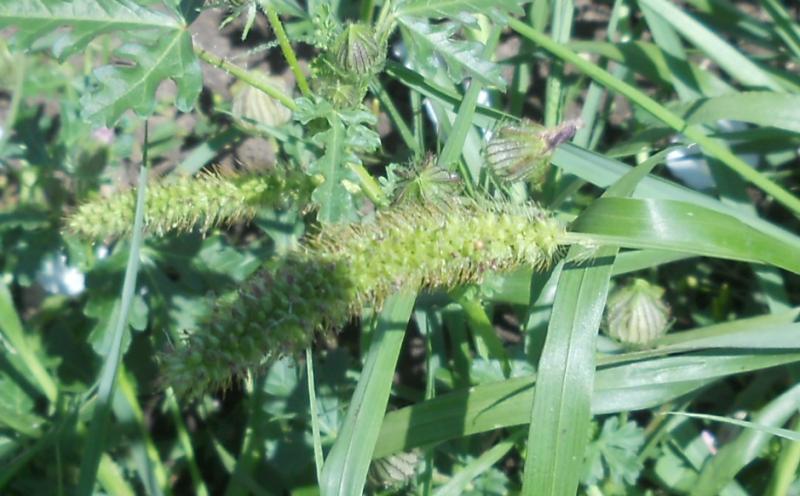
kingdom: Plantae
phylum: Tracheophyta
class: Liliopsida
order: Poales
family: Poaceae
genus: Setaria
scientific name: Setaria verticillata
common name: Hooked bristlegrass
